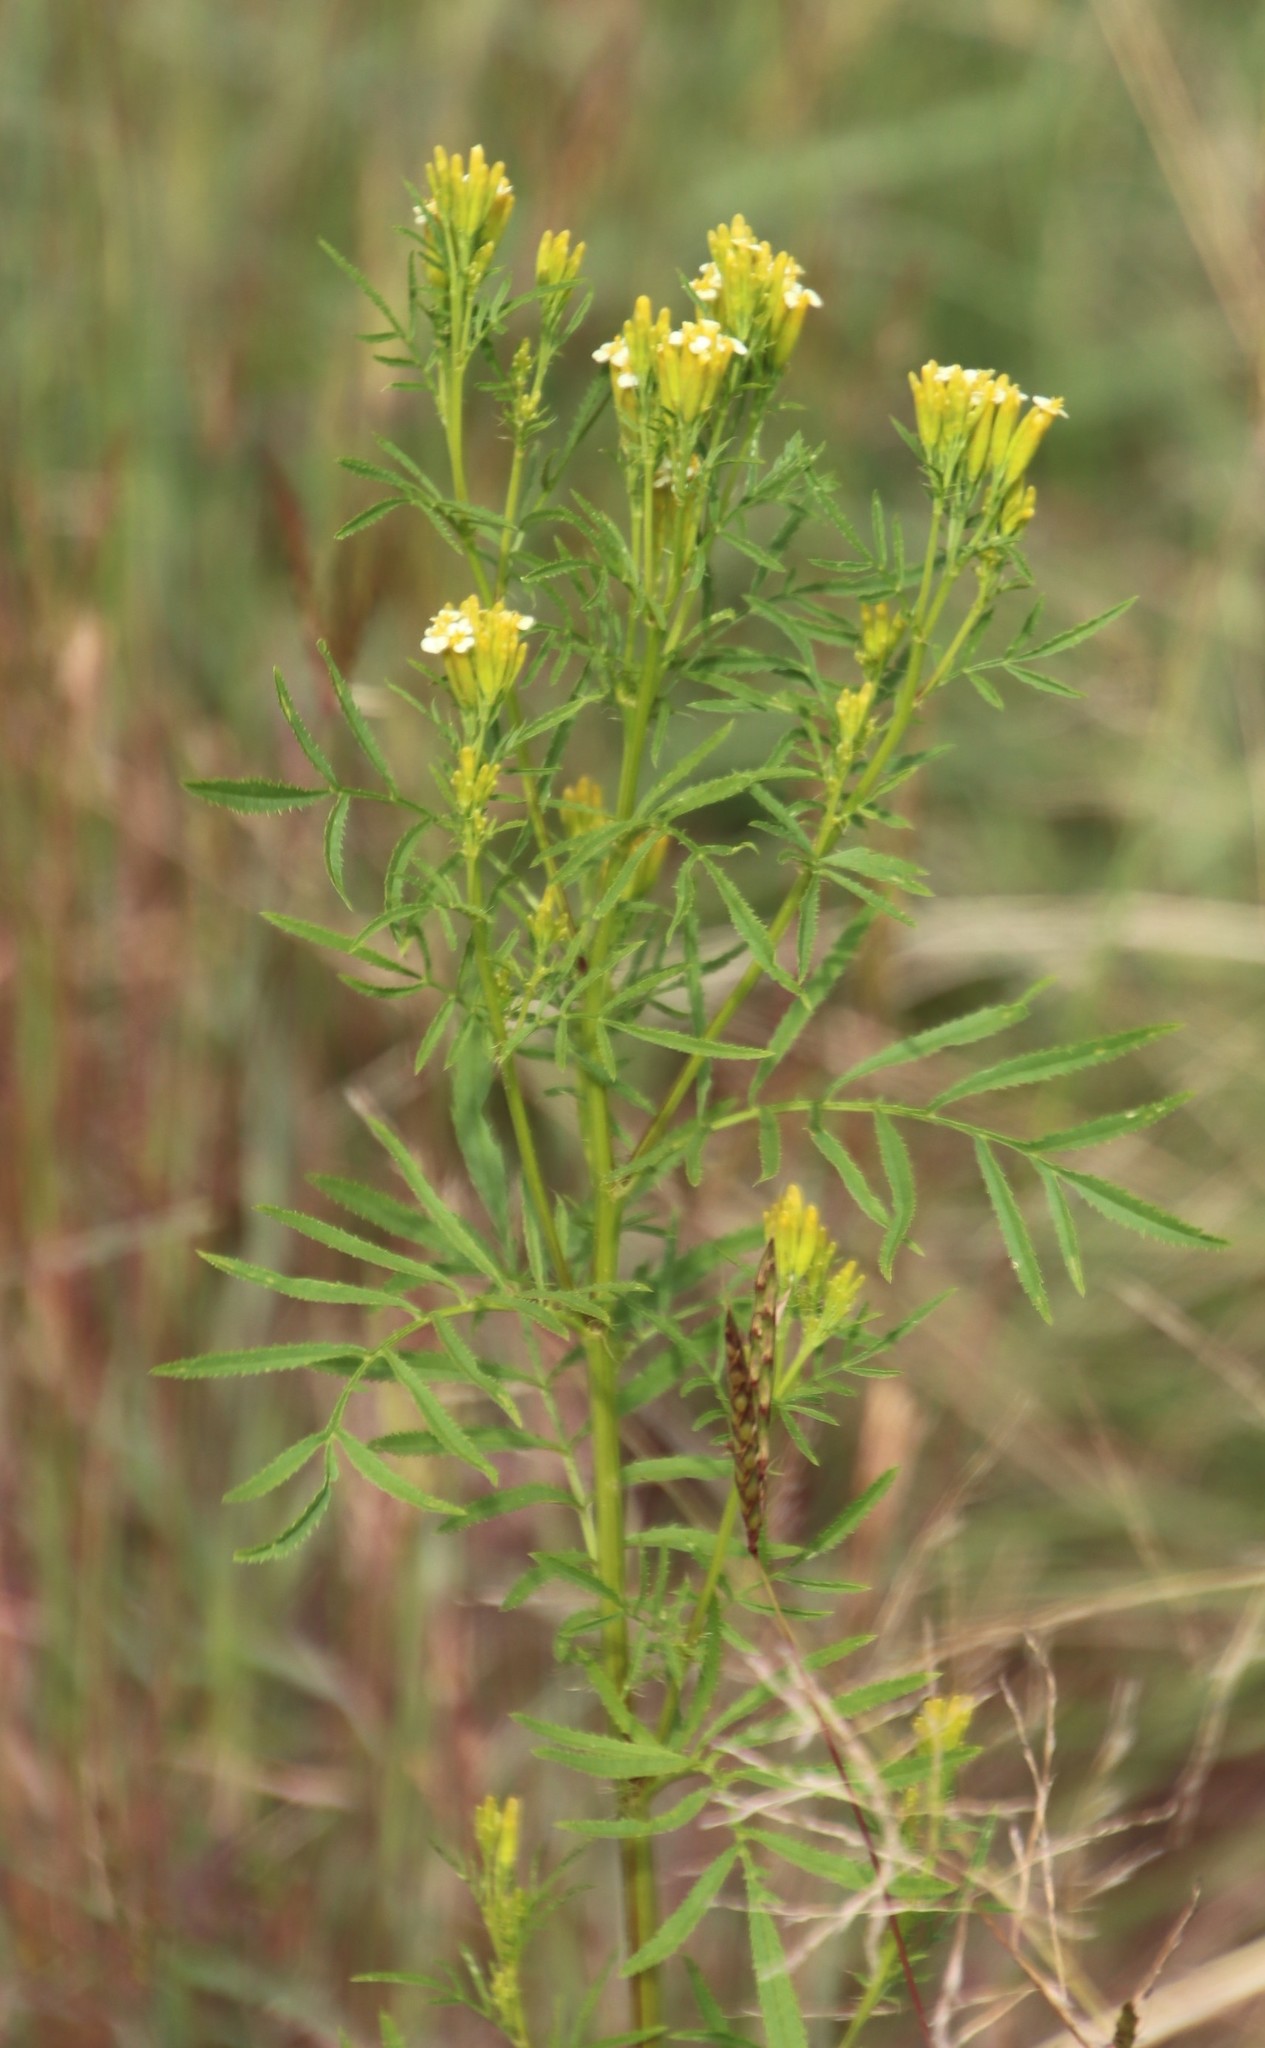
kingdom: Plantae
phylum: Tracheophyta
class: Magnoliopsida
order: Asterales
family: Asteraceae
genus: Tagetes
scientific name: Tagetes minuta
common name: Muster john henry
